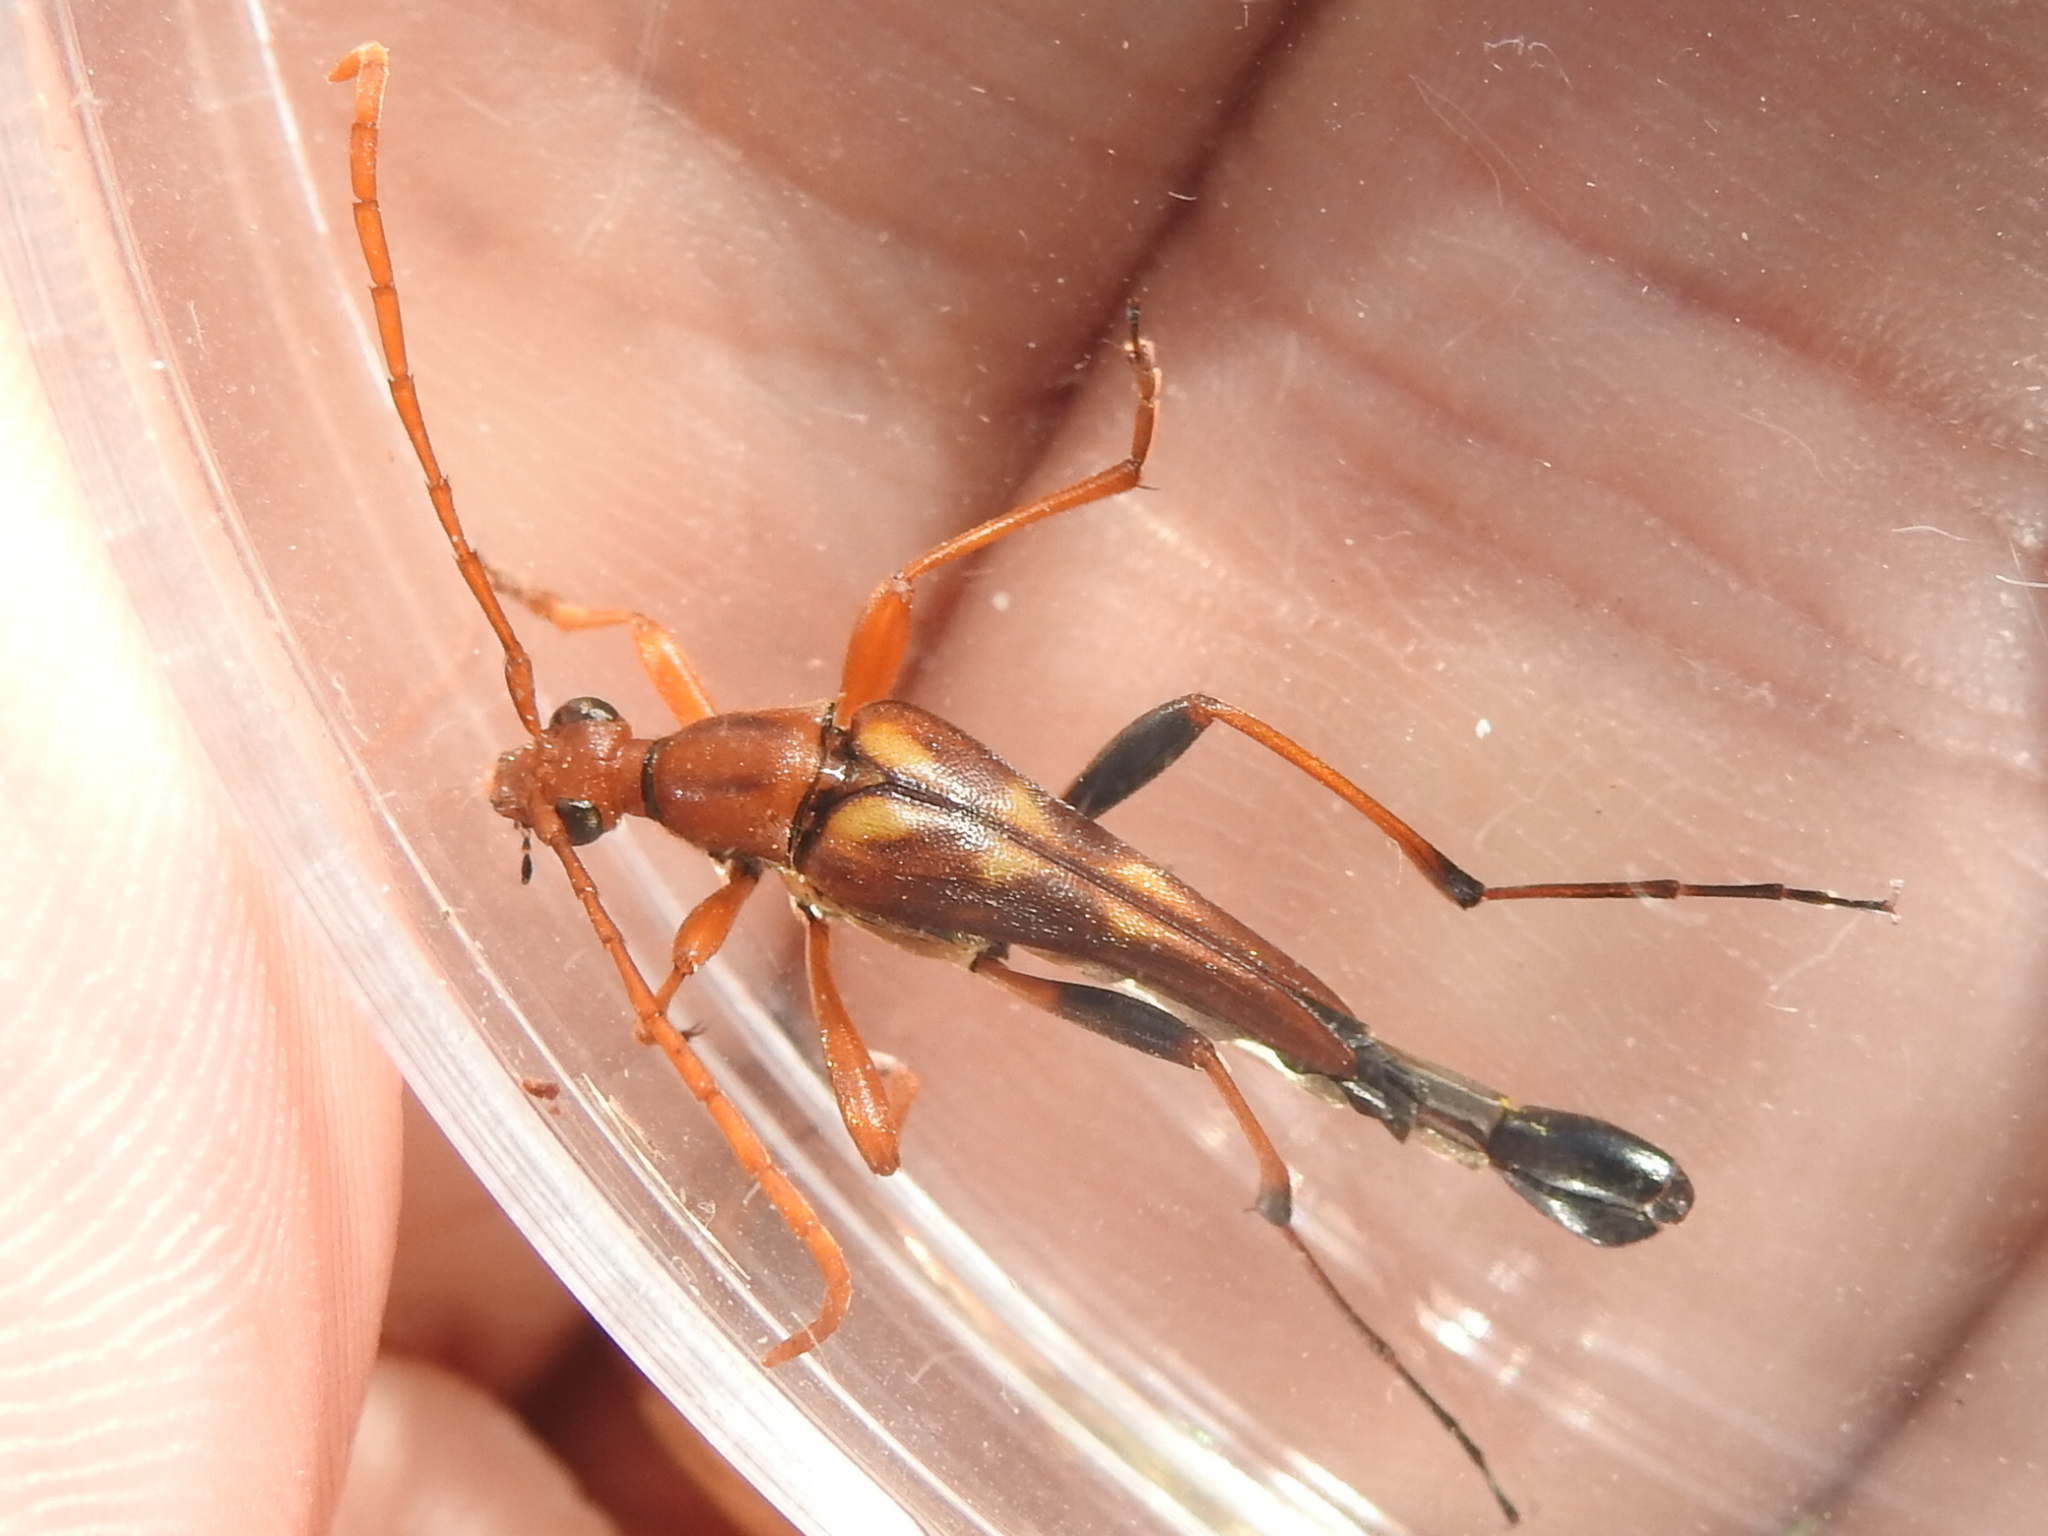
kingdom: Animalia
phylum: Arthropoda
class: Insecta
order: Coleoptera
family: Cerambycidae
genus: Strangalia
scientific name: Strangalia virilis
